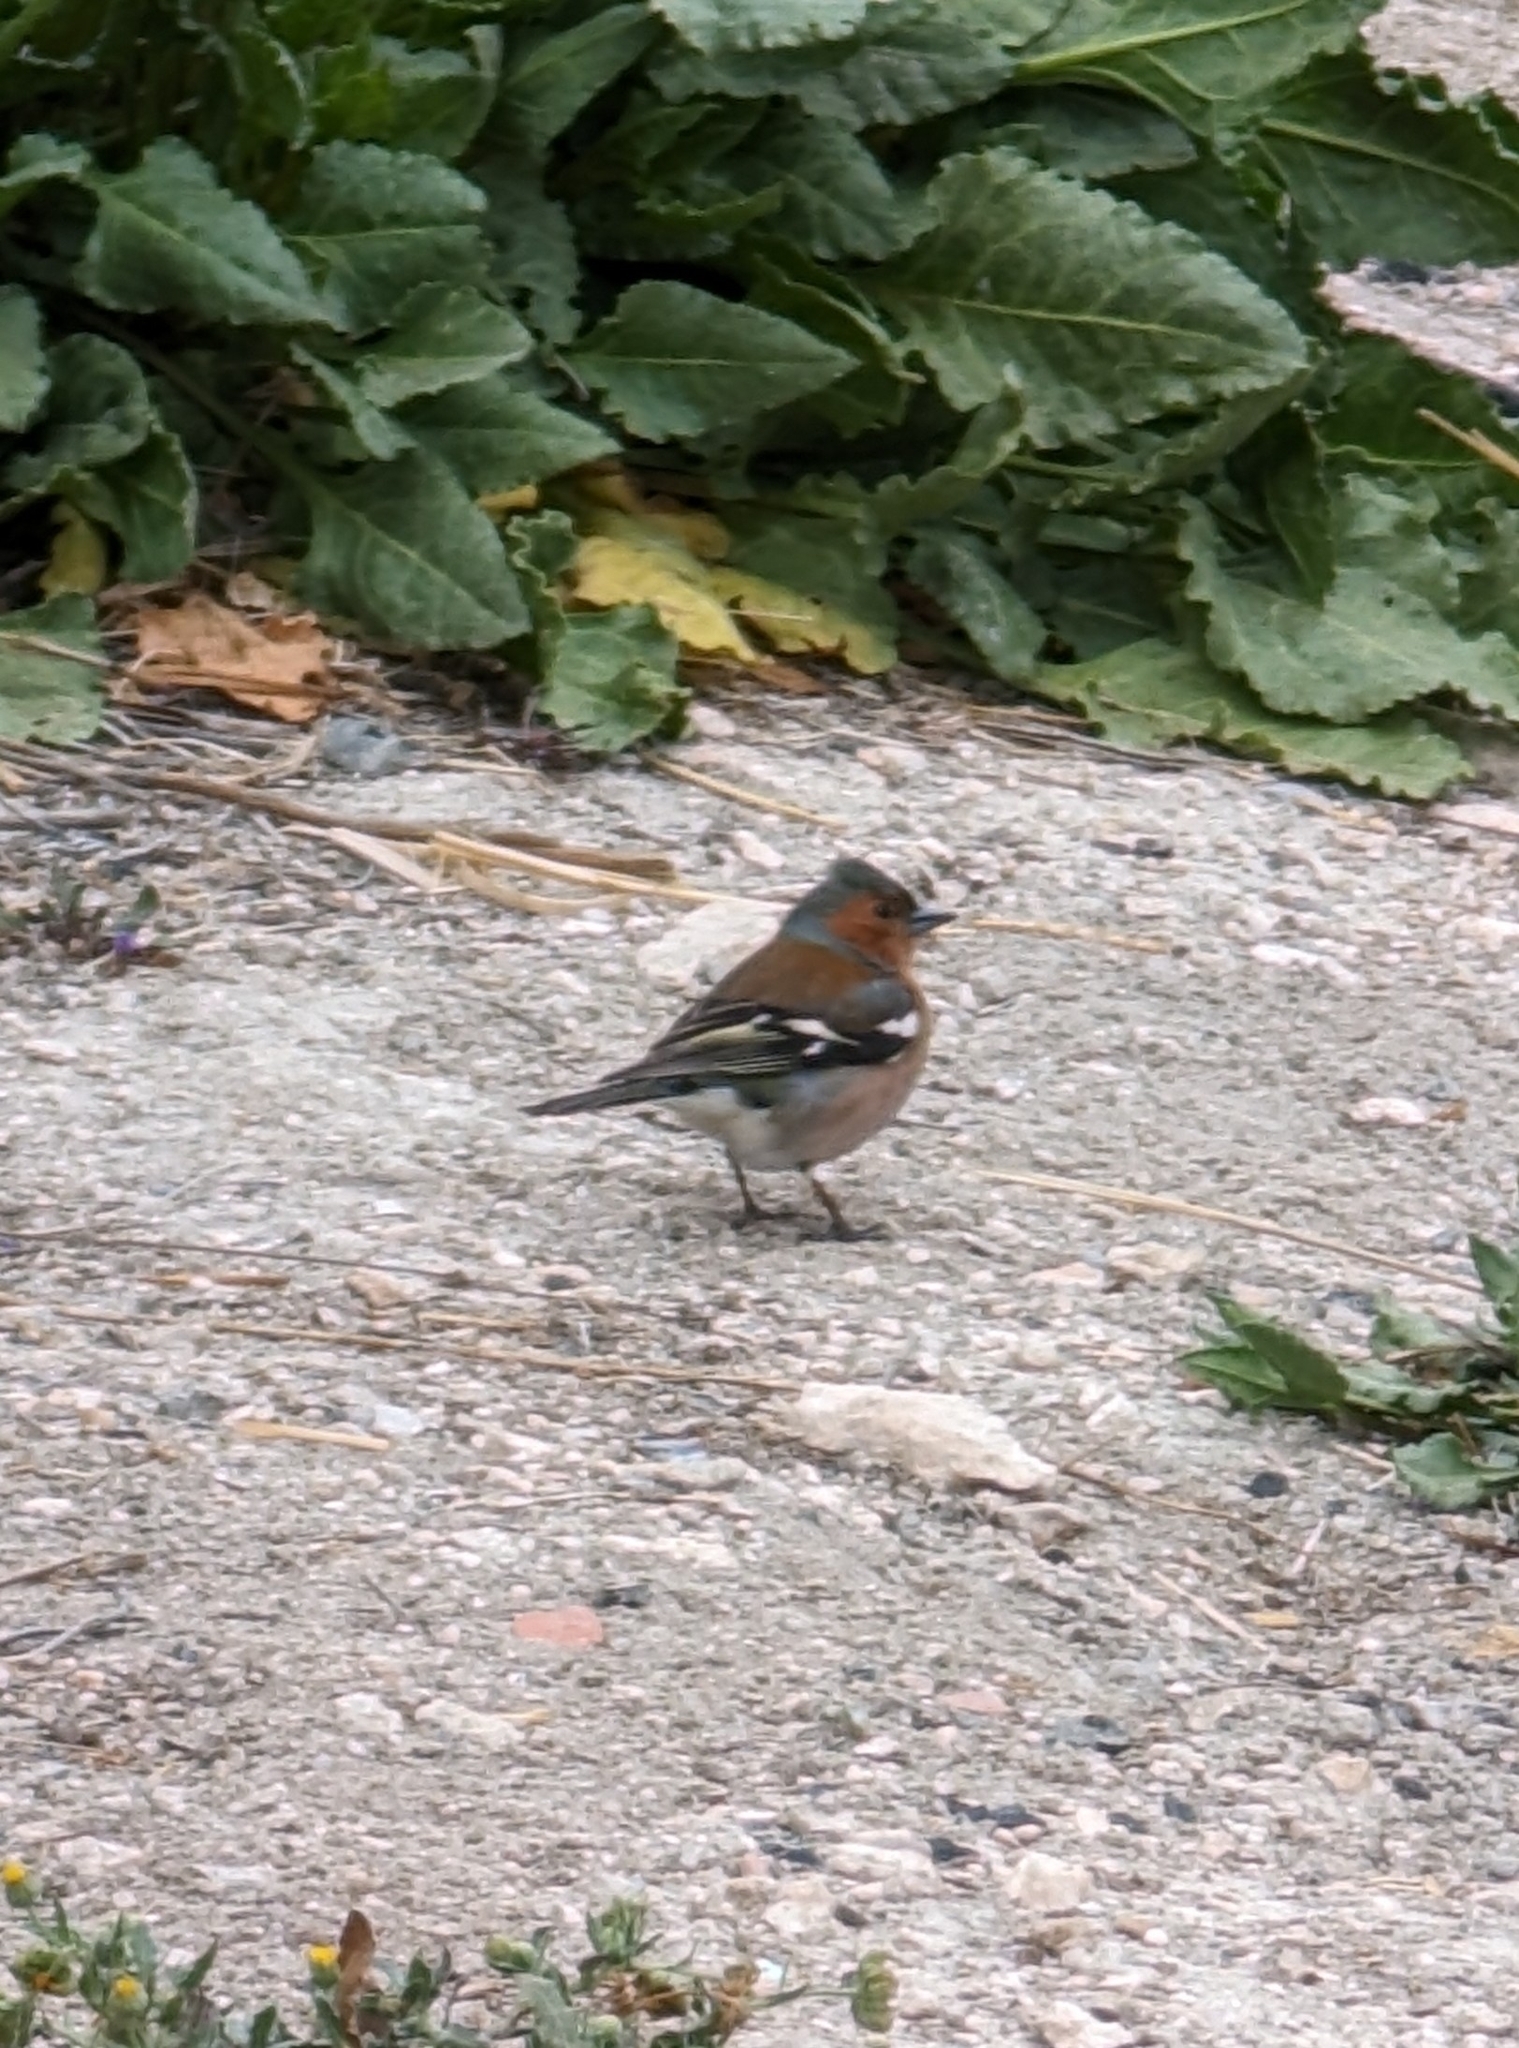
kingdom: Animalia
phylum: Chordata
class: Aves
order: Passeriformes
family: Fringillidae
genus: Fringilla
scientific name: Fringilla coelebs
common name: Common chaffinch
